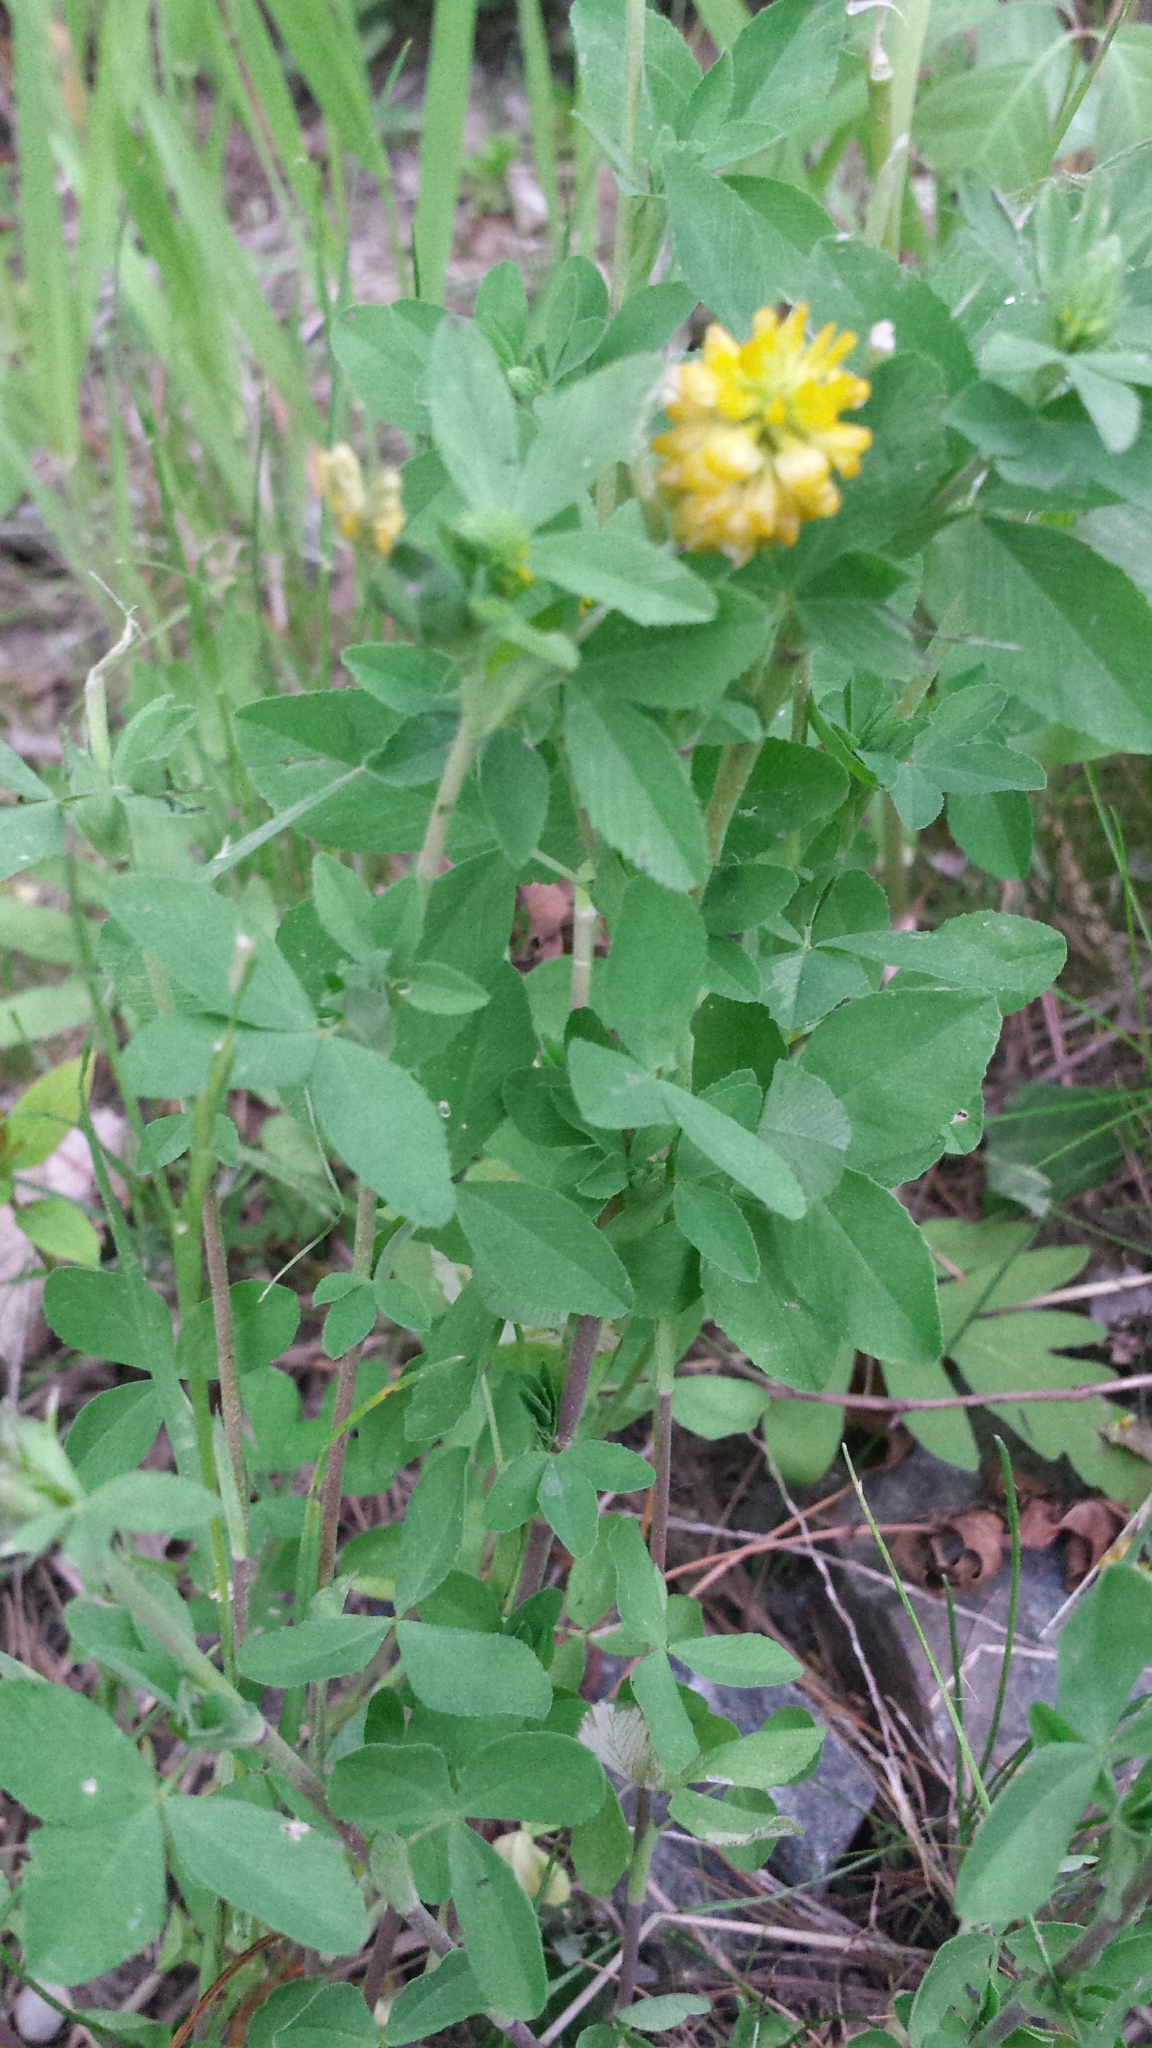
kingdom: Plantae
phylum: Tracheophyta
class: Magnoliopsida
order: Fabales
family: Fabaceae
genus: Trifolium
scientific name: Trifolium aureum
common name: Golden clover
